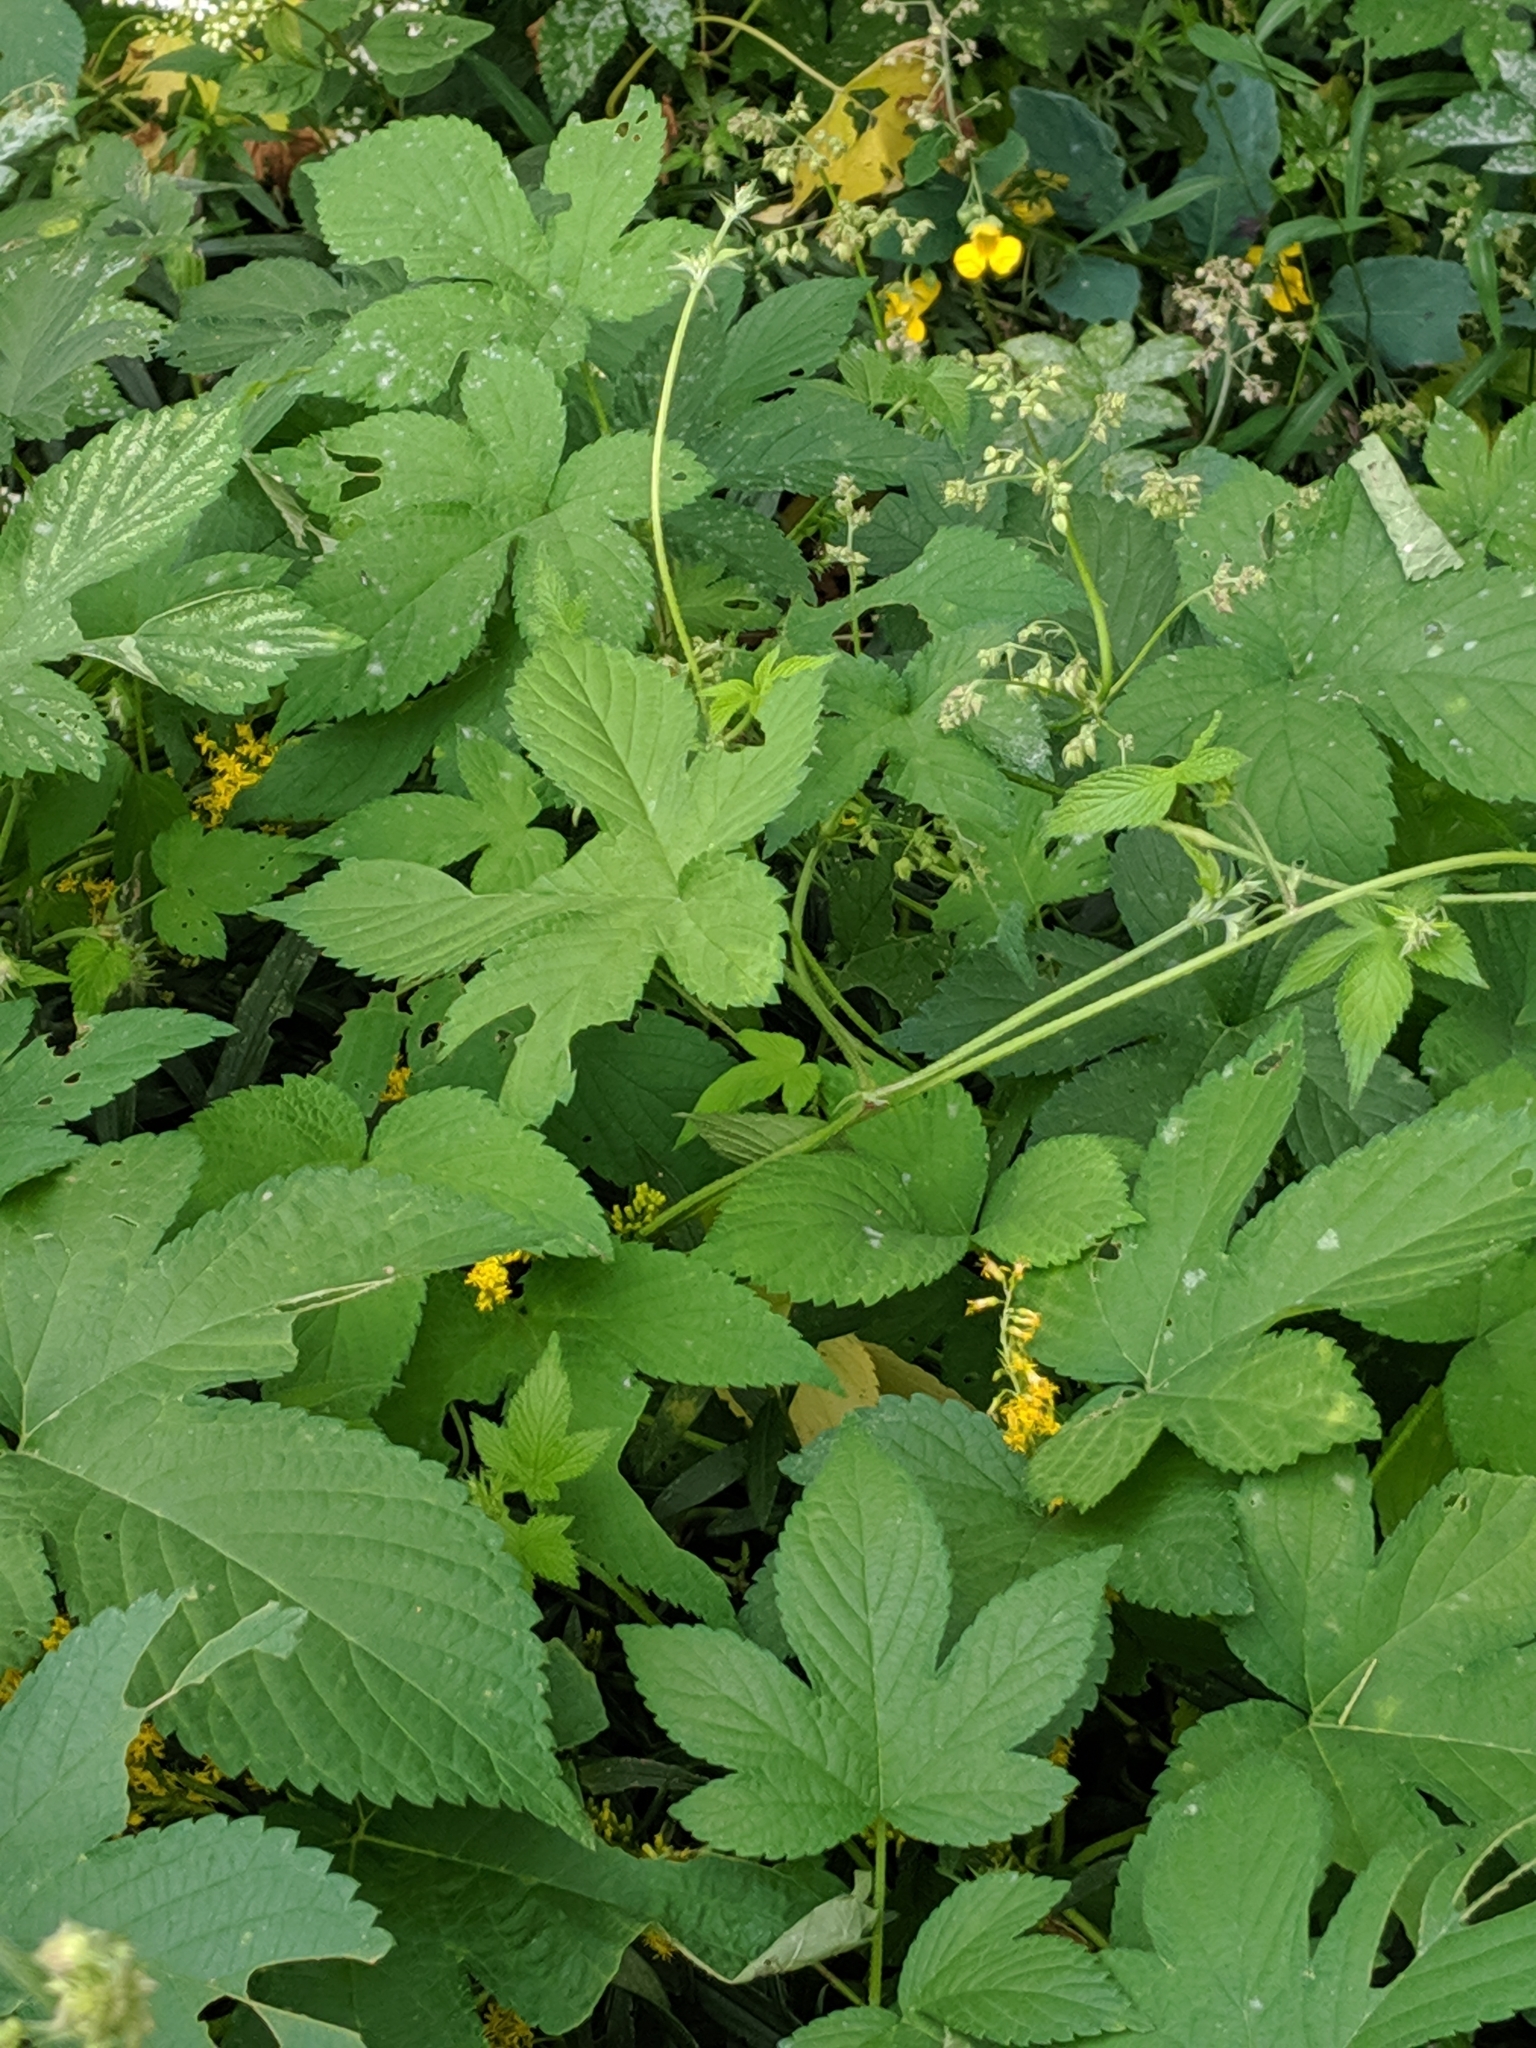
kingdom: Plantae
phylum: Tracheophyta
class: Magnoliopsida
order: Rosales
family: Cannabaceae
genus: Humulus
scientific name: Humulus scandens
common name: Japanese hop
